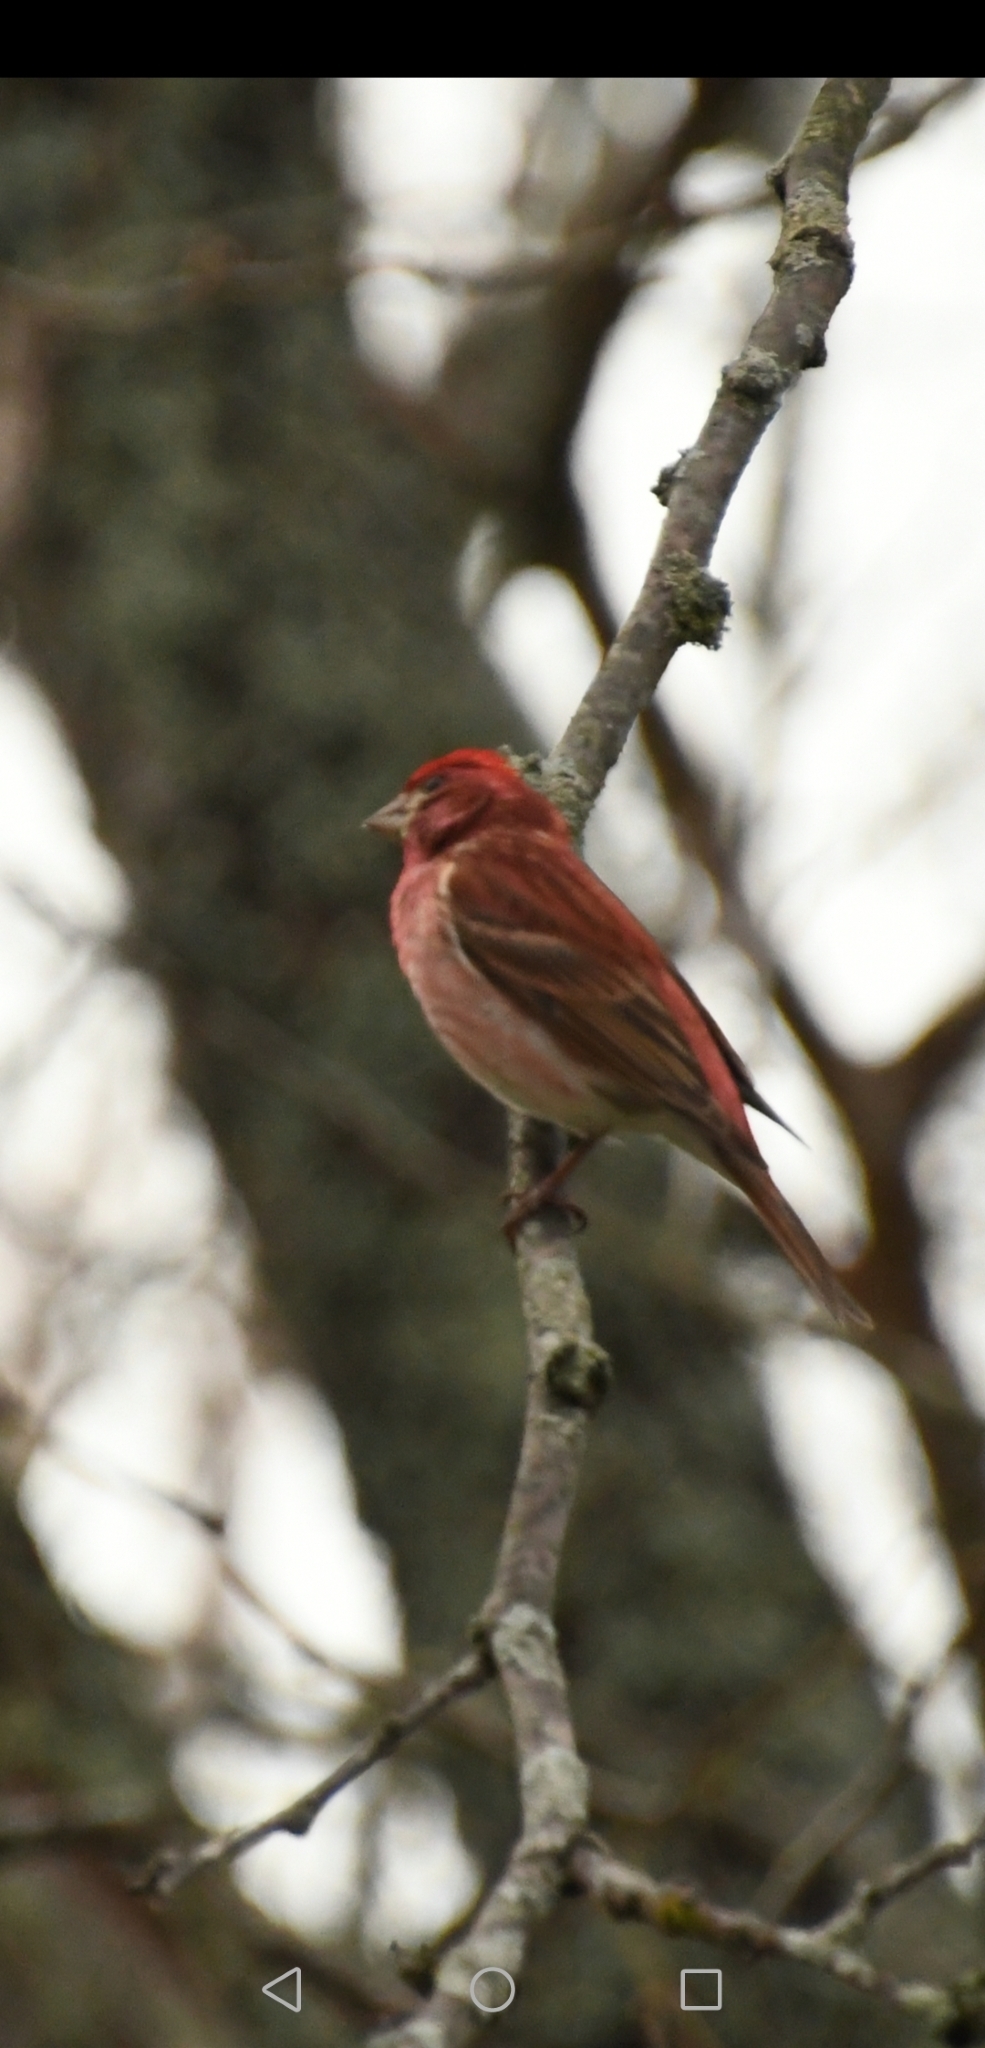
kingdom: Animalia
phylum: Chordata
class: Aves
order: Passeriformes
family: Fringillidae
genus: Haemorhous
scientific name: Haemorhous purpureus
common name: Purple finch
